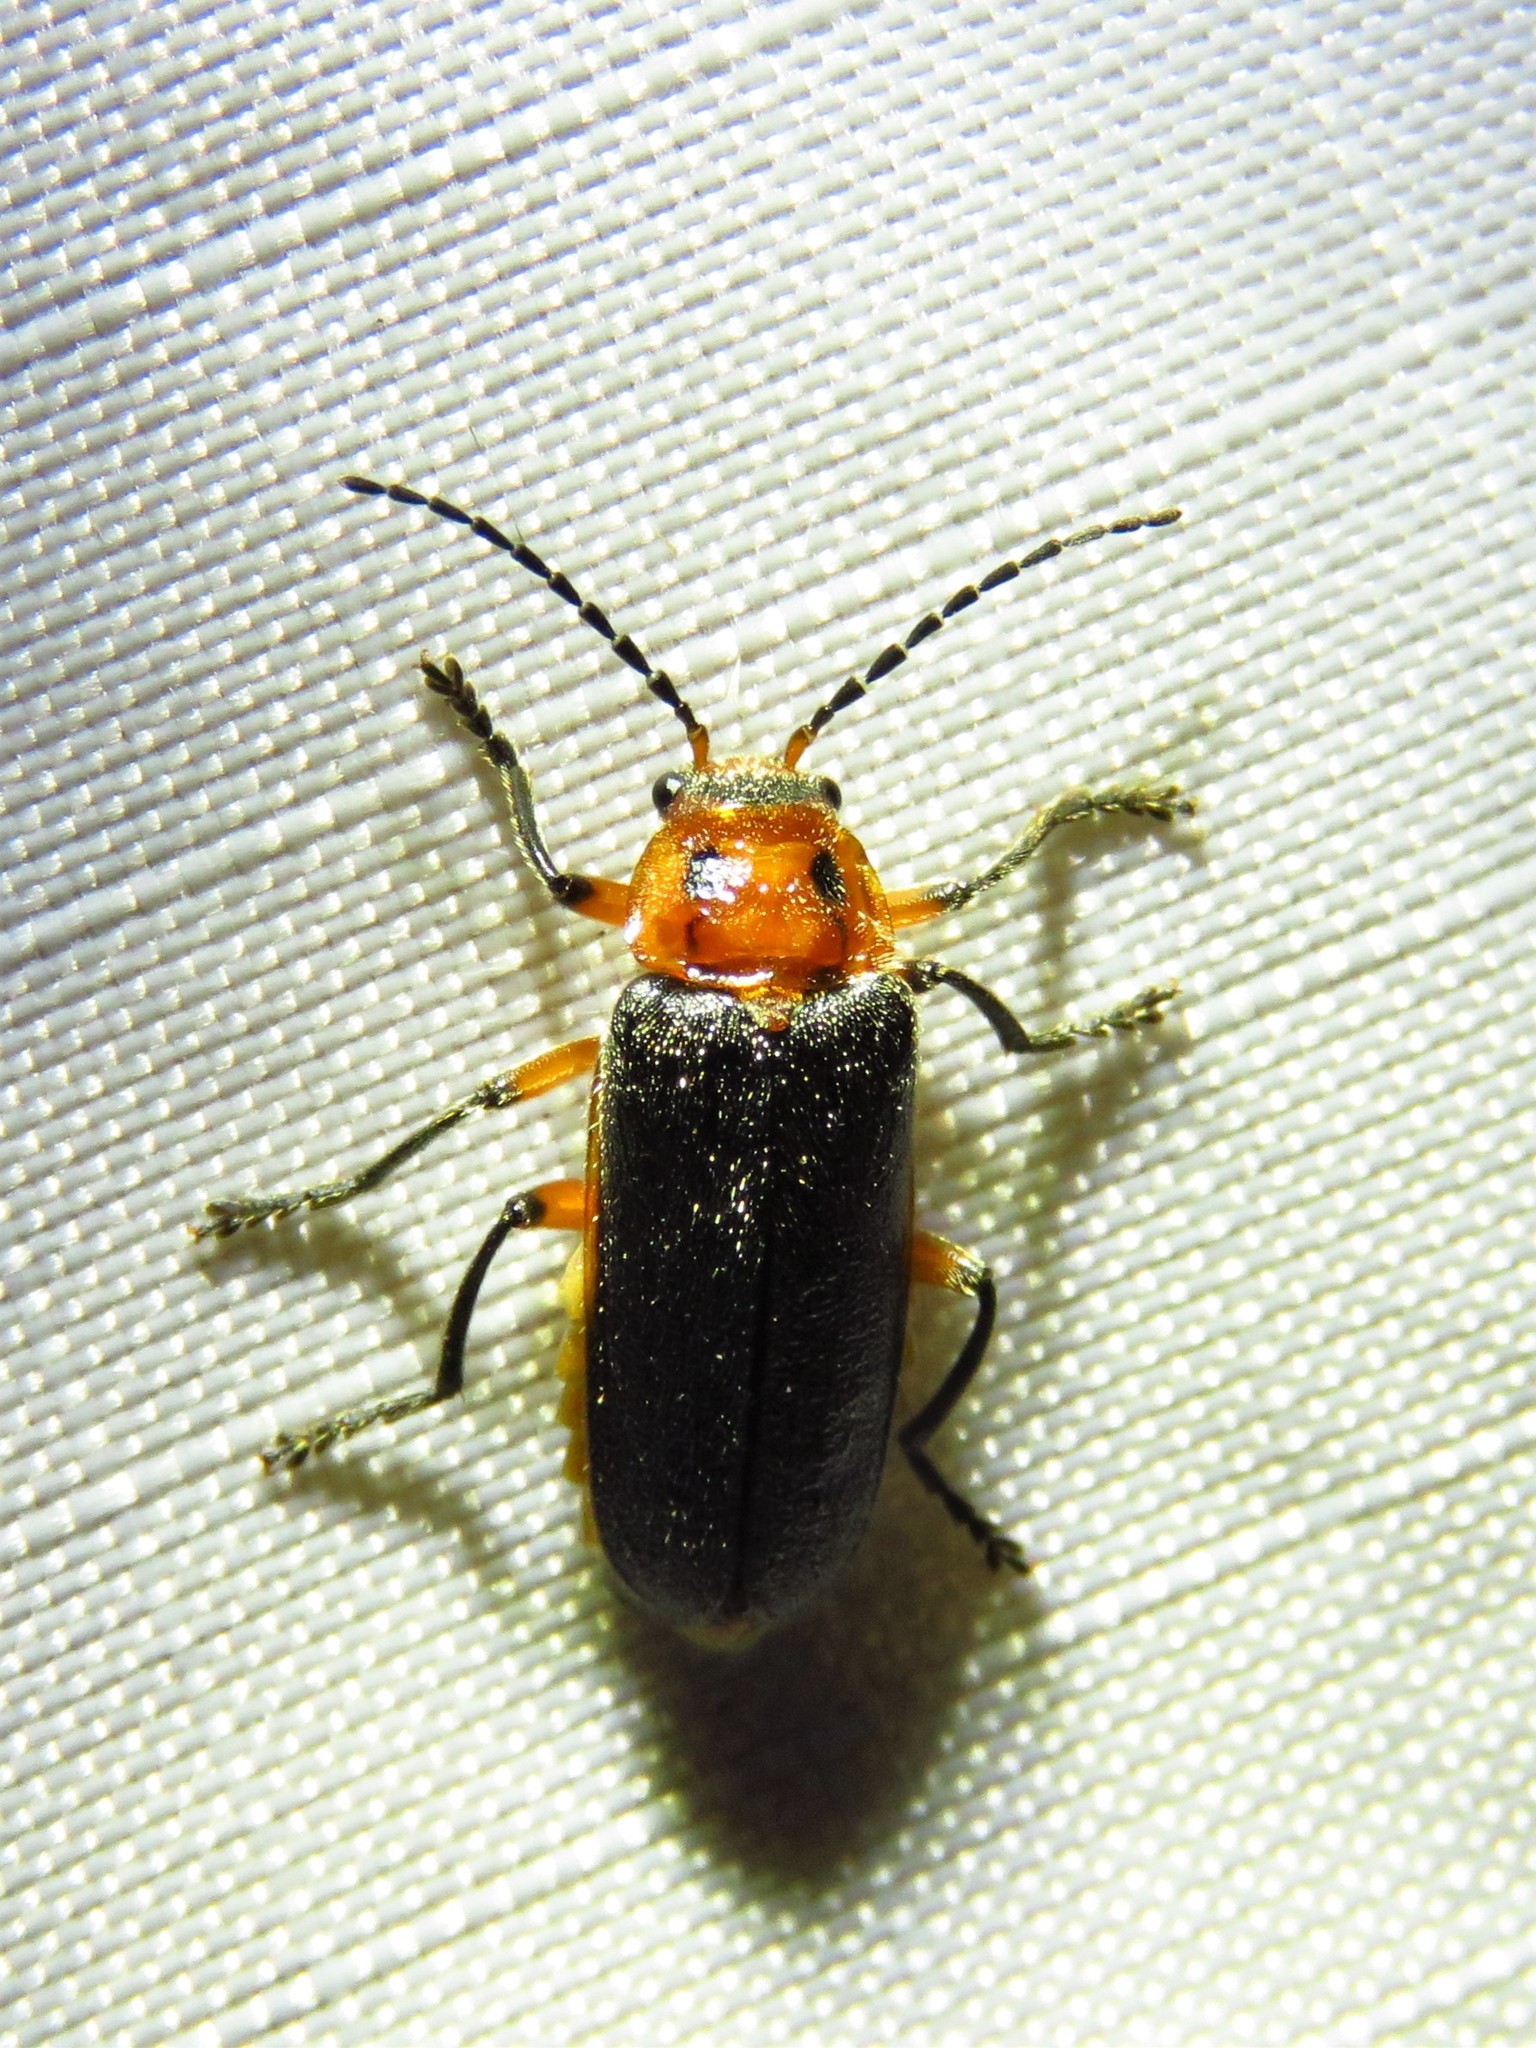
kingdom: Animalia
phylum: Arthropoda
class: Insecta
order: Coleoptera
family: Cantharidae
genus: Atalantycha
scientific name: Atalantycha bilineata
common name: Two-lined leatherwing
